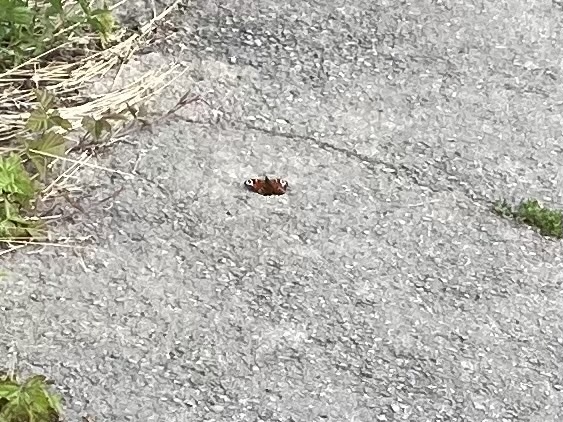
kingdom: Animalia
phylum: Arthropoda
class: Insecta
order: Lepidoptera
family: Nymphalidae
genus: Aglais
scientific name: Aglais io
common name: Peacock
